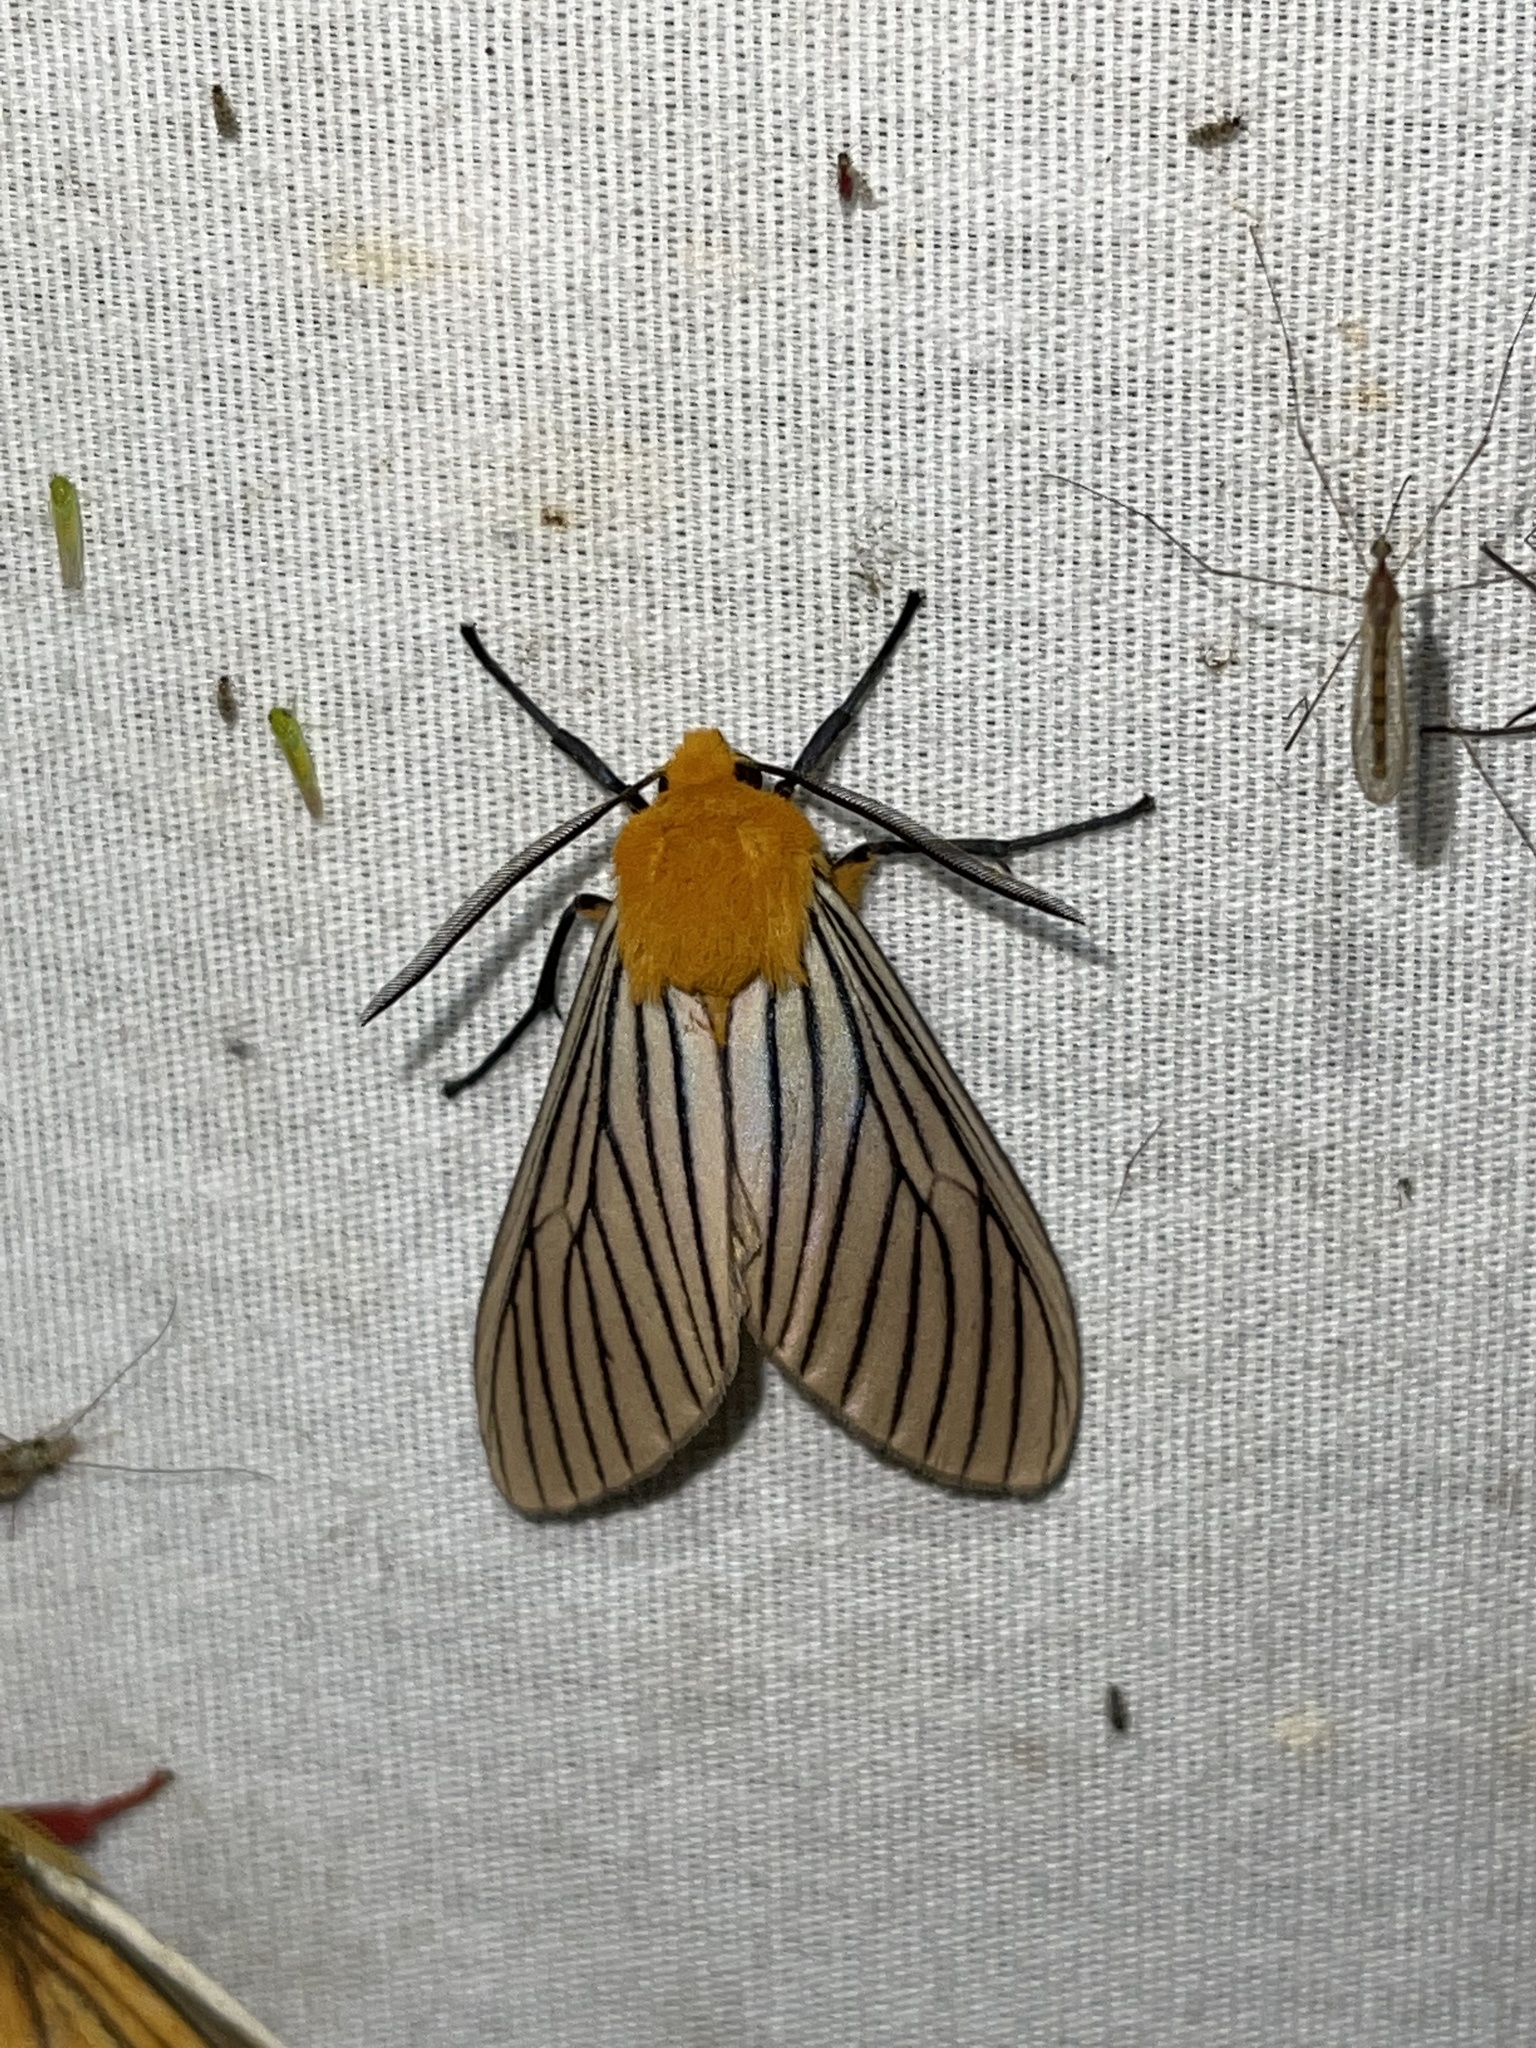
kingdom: Animalia
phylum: Arthropoda
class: Insecta
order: Lepidoptera
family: Erebidae
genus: Pseudischnocampa
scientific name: Pseudischnocampa humosa
